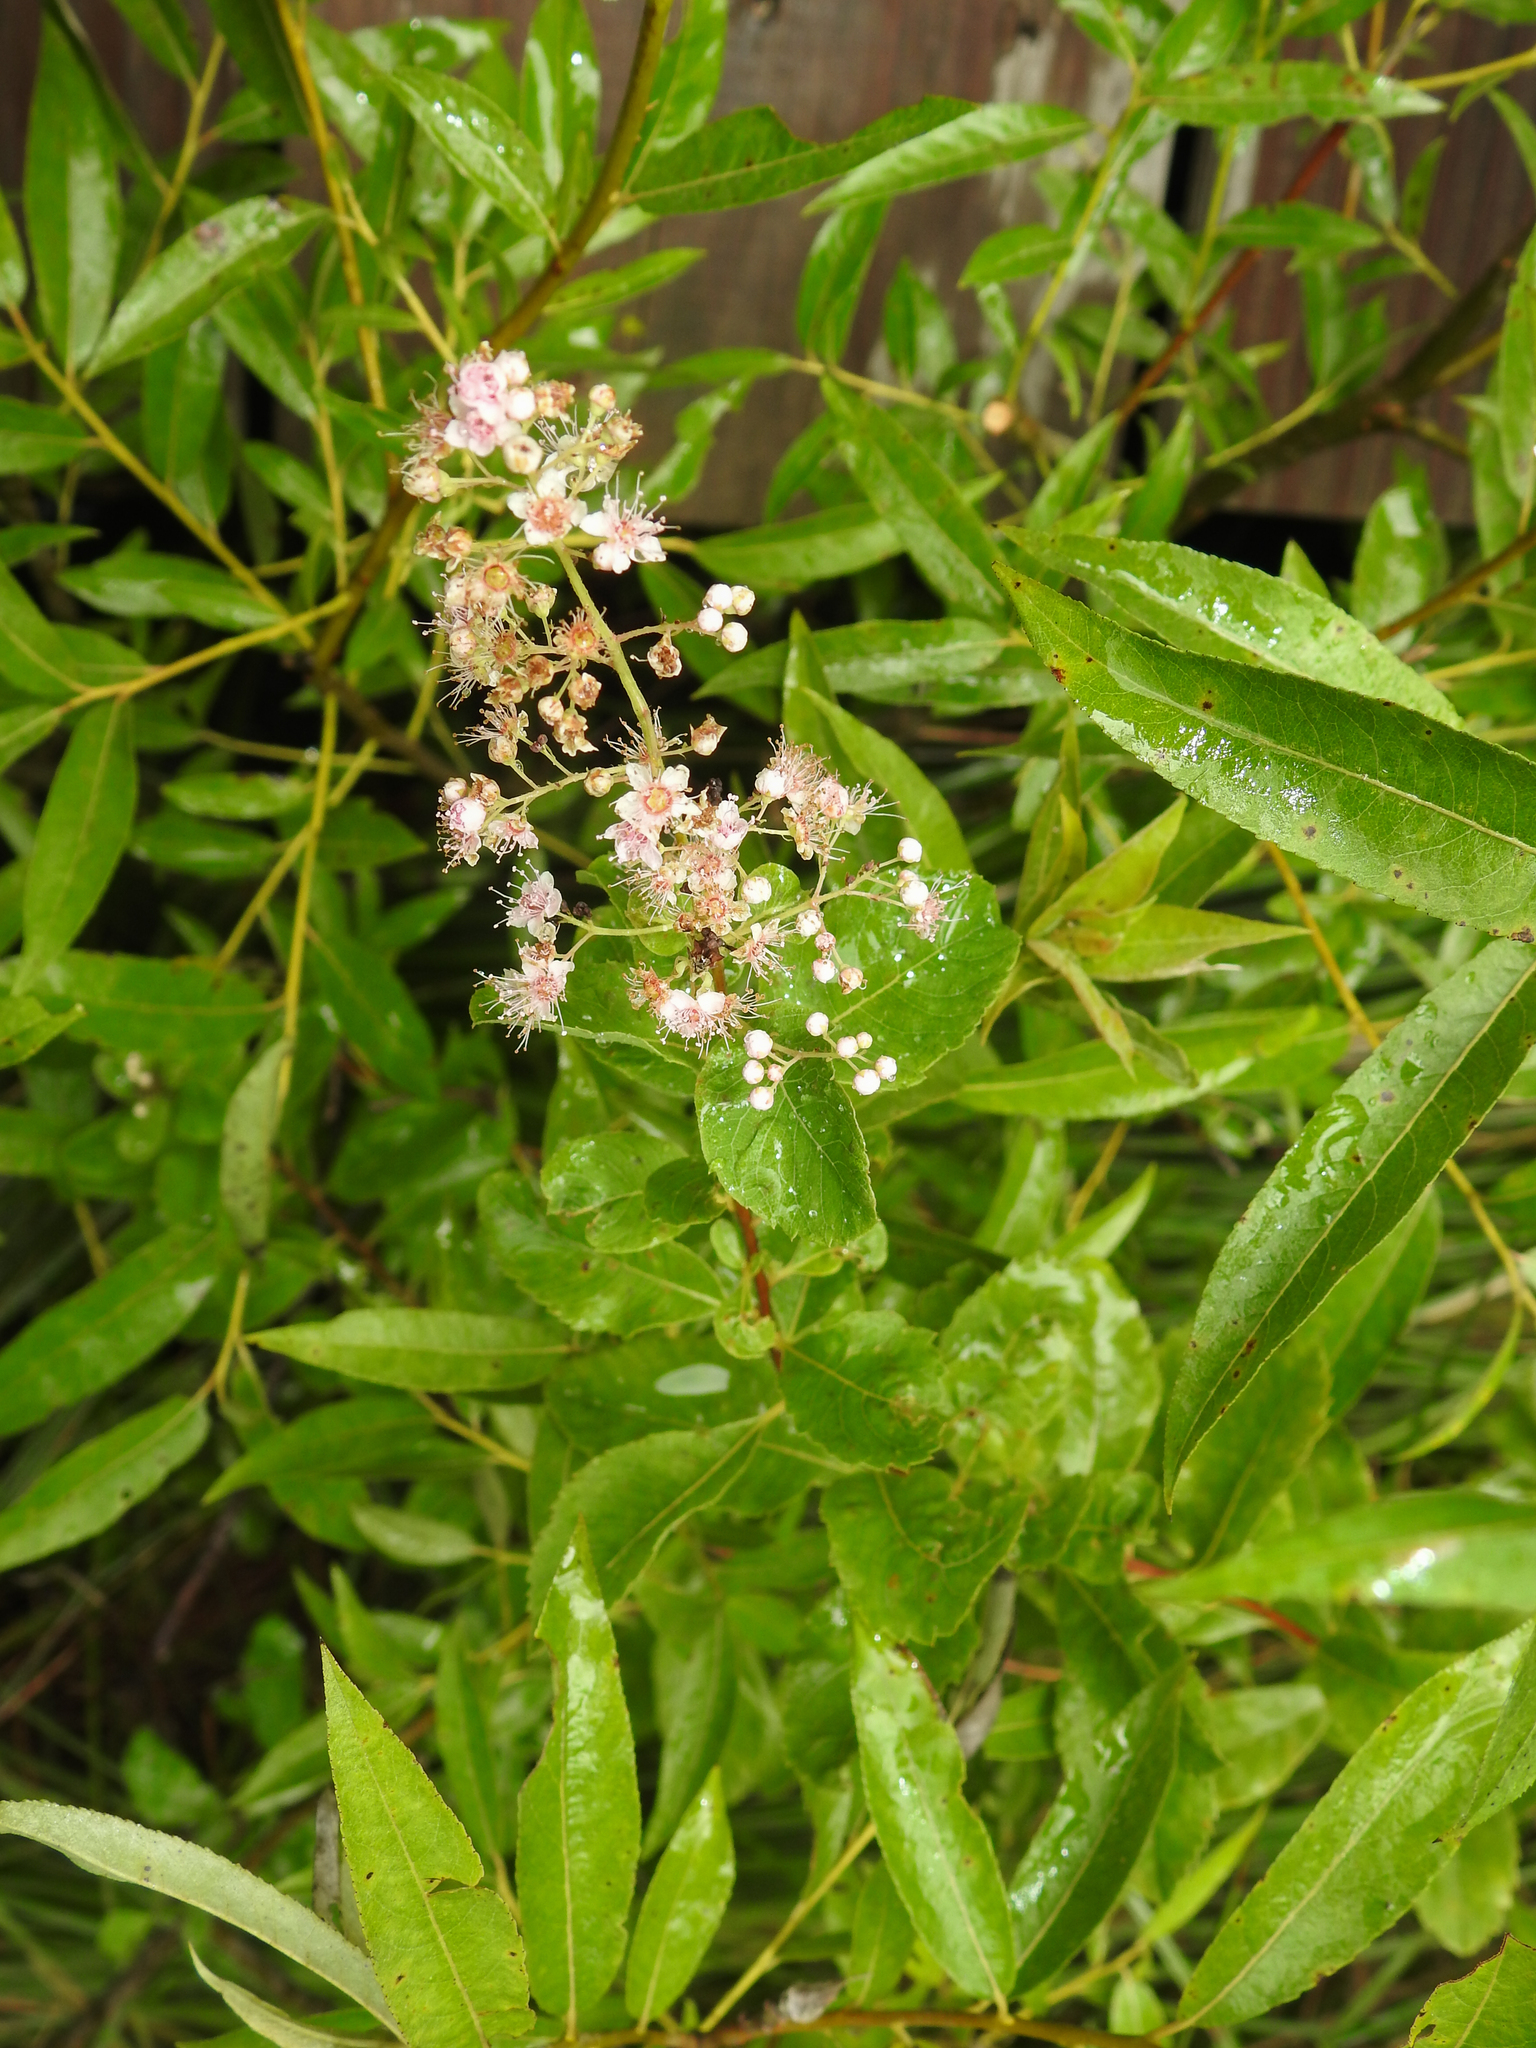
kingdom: Plantae
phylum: Tracheophyta
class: Magnoliopsida
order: Rosales
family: Rosaceae
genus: Spiraea
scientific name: Spiraea alba
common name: Pale bridewort
